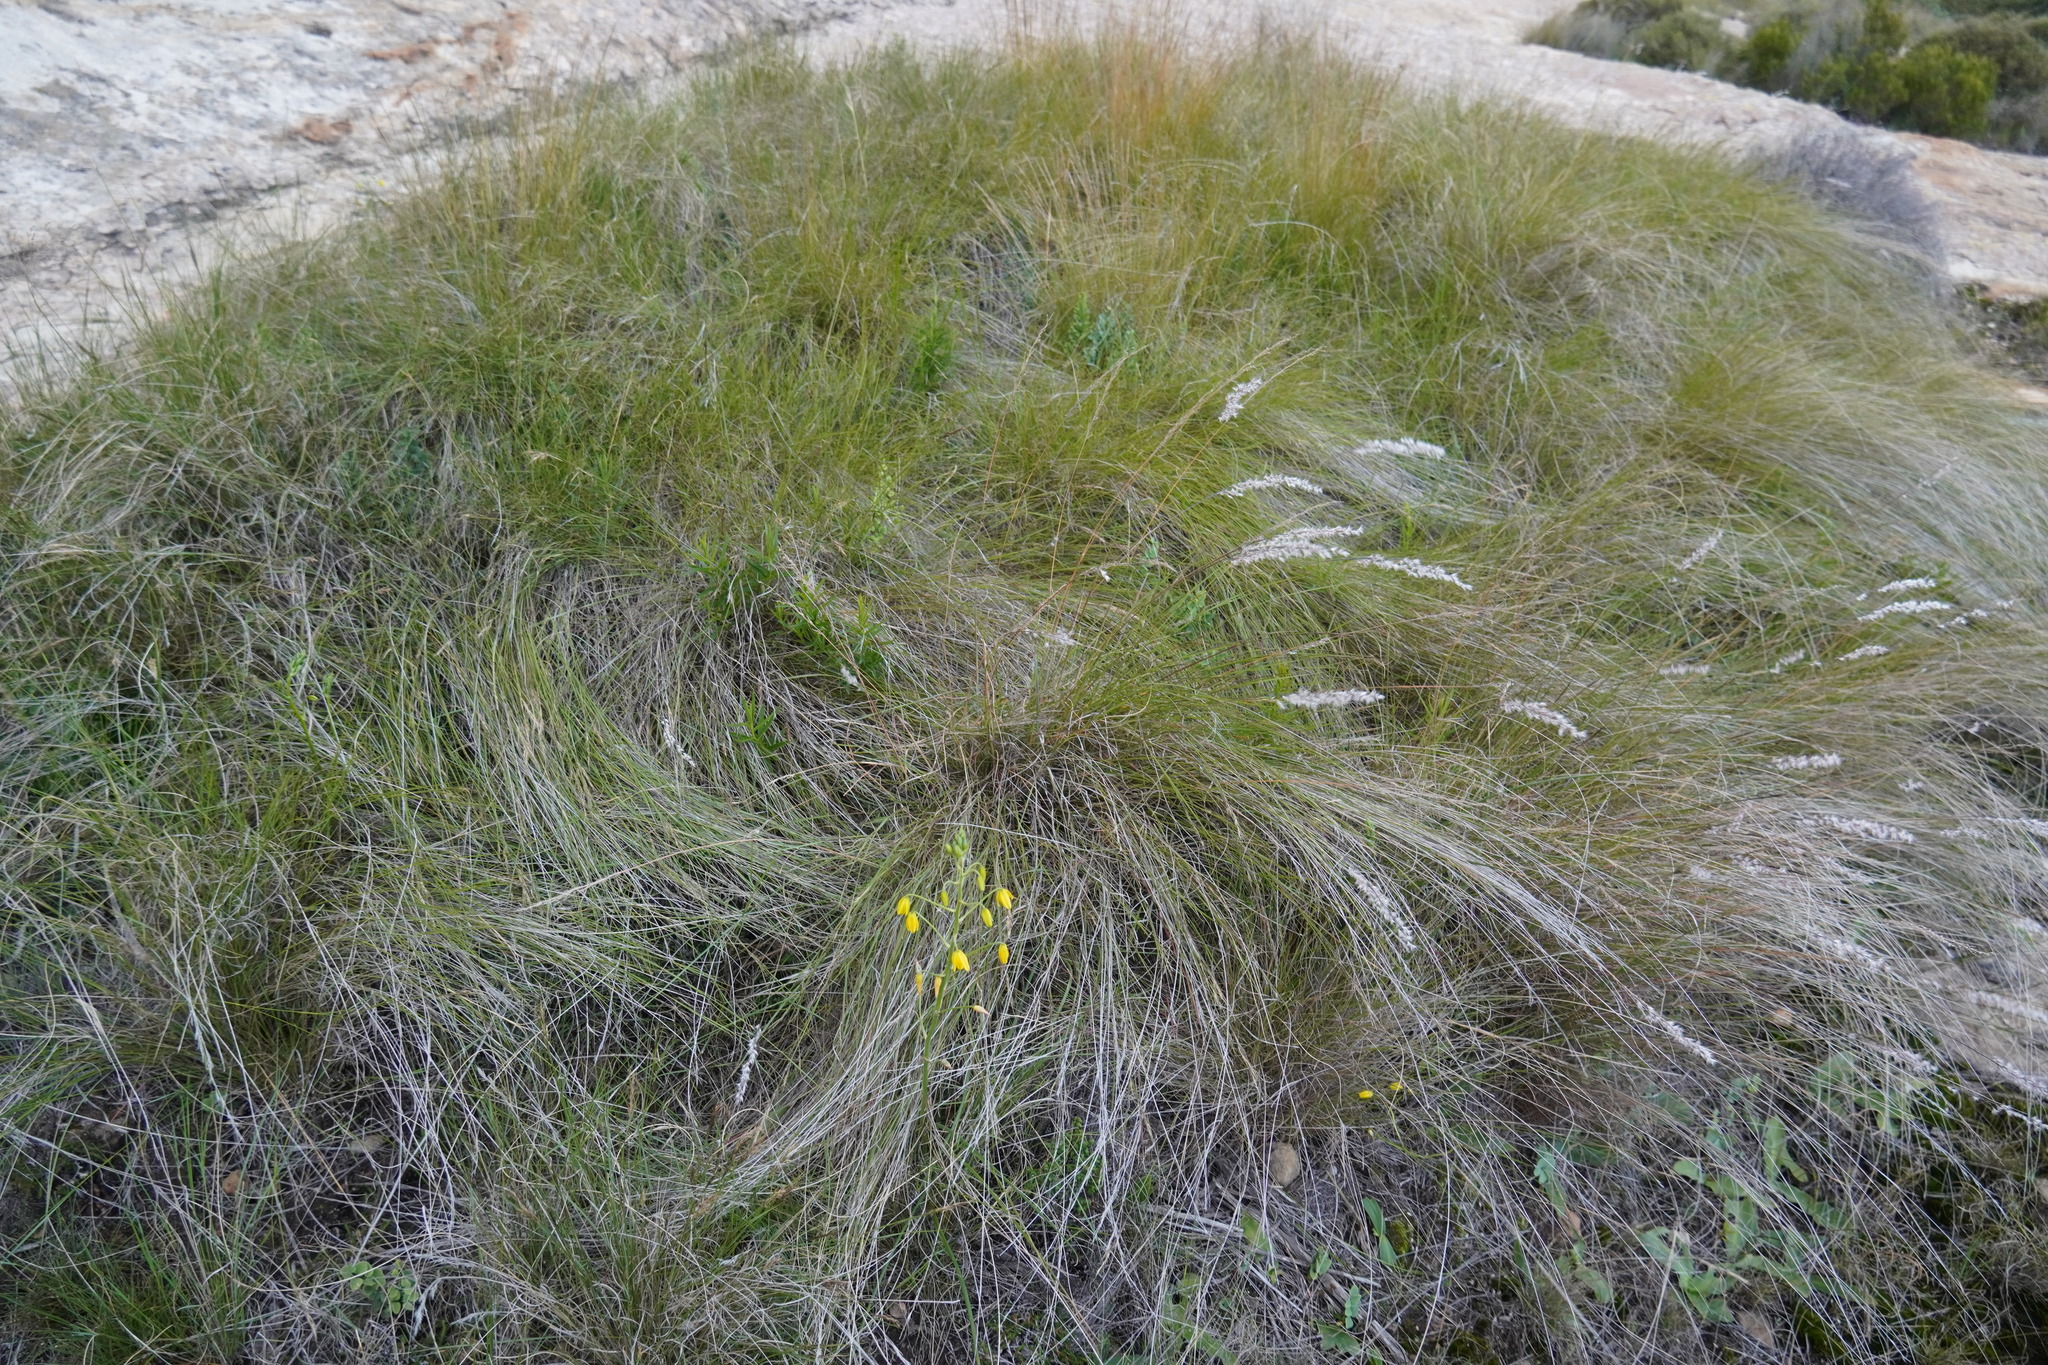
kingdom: Plantae
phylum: Tracheophyta
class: Liliopsida
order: Asparagales
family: Asparagaceae
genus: Albuca
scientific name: Albuca shawii
